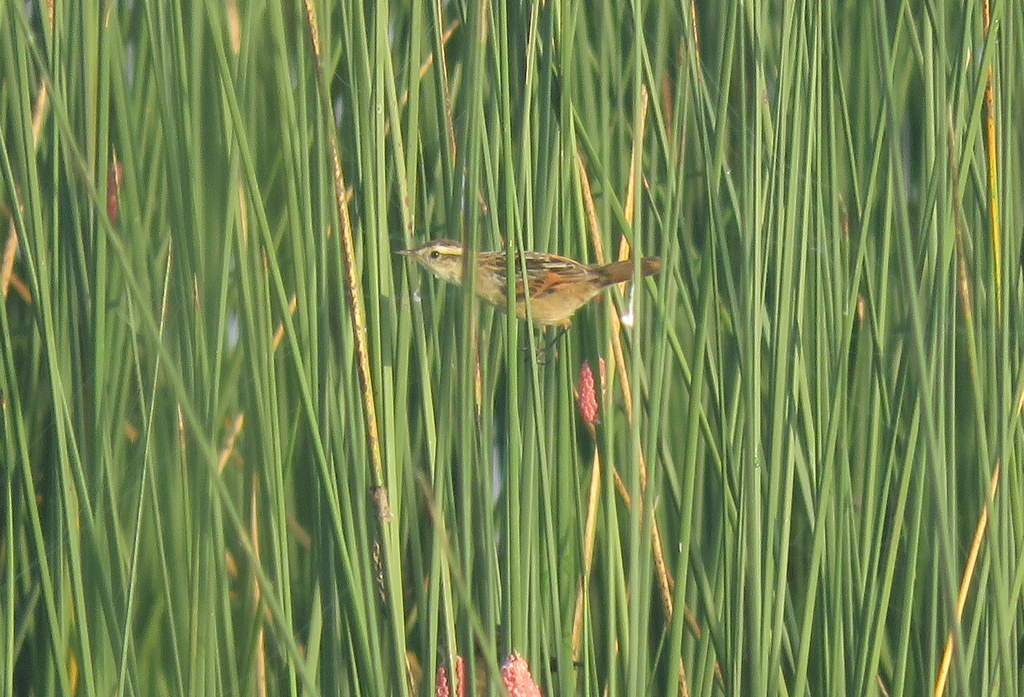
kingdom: Animalia
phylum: Chordata
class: Aves
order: Passeriformes
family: Furnariidae
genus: Phleocryptes
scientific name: Phleocryptes melanops
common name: Wren-like rushbird
